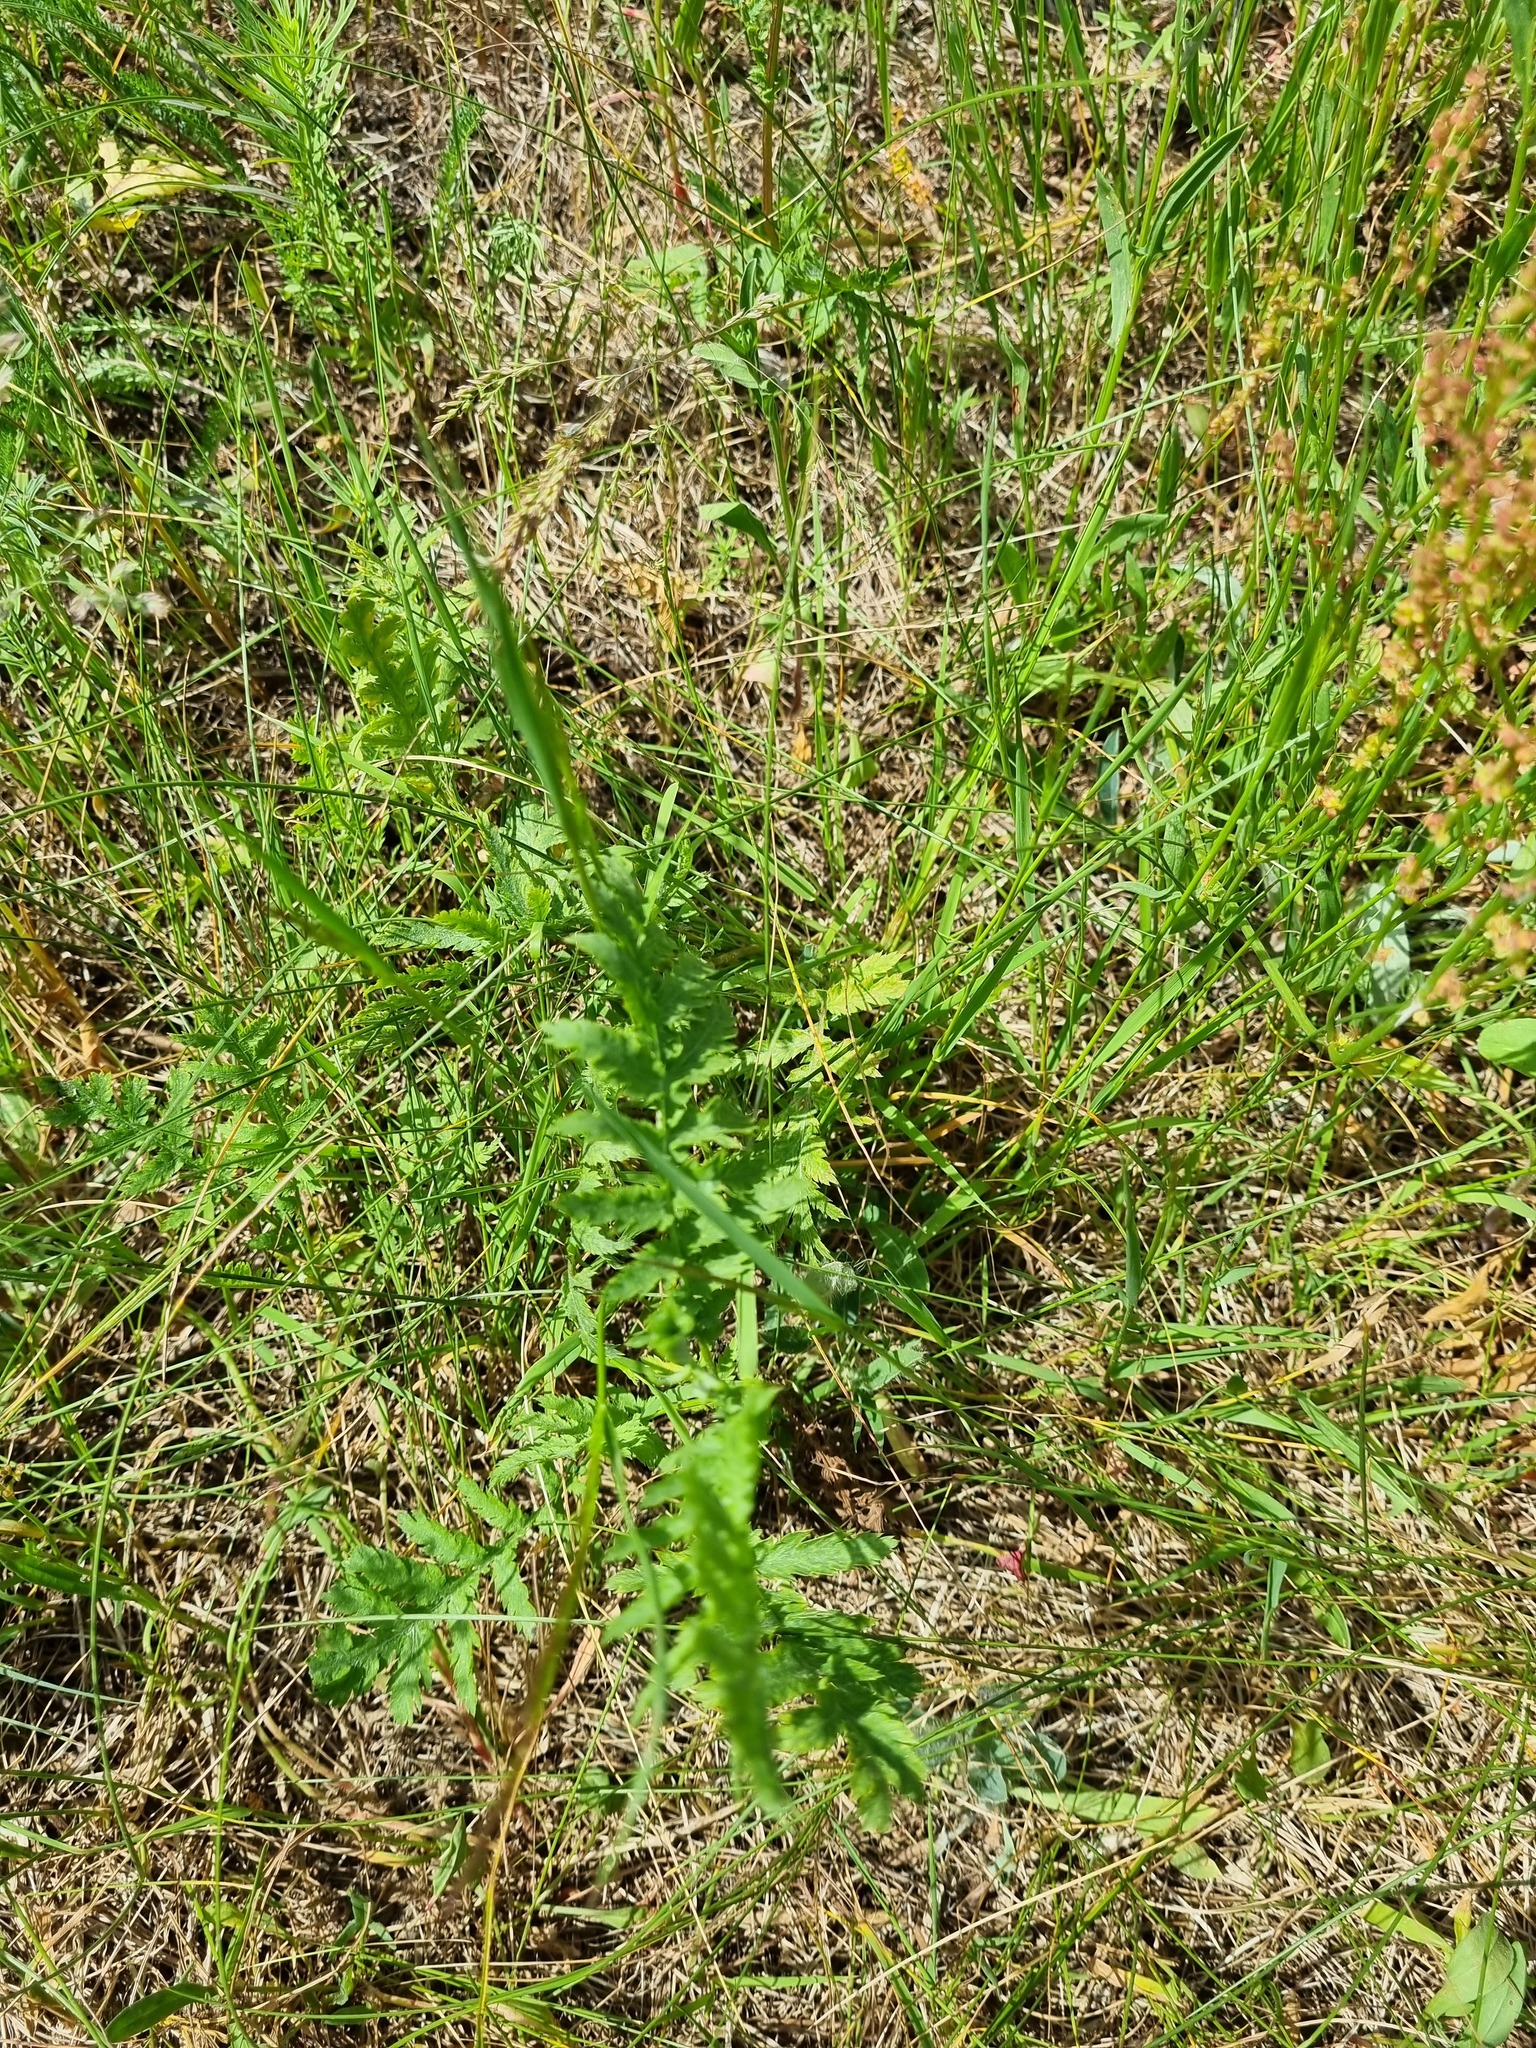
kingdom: Plantae
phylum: Tracheophyta
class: Magnoliopsida
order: Asterales
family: Asteraceae
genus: Tanacetum
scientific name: Tanacetum vulgare
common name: Common tansy
